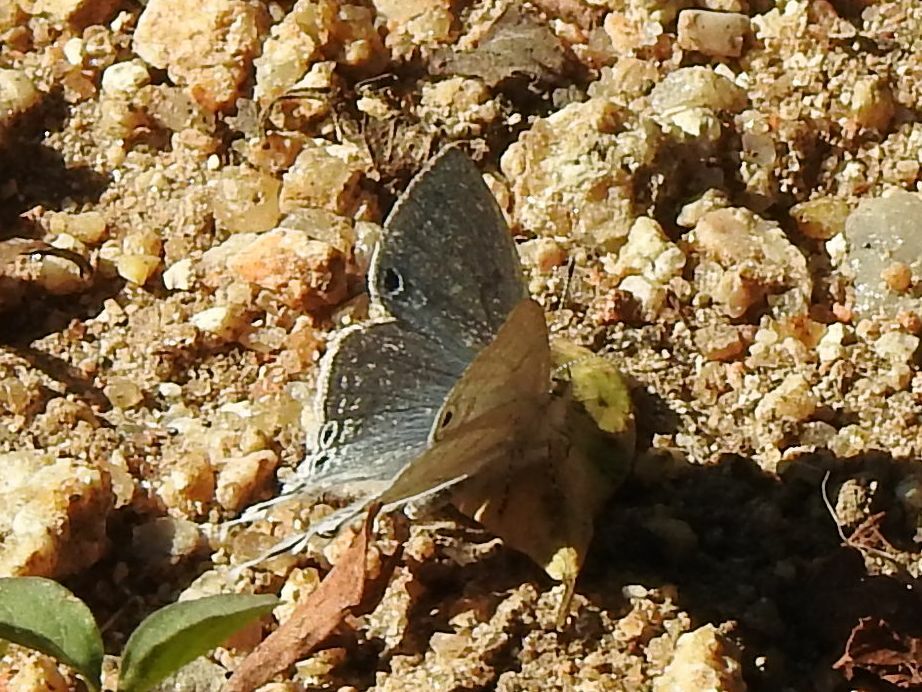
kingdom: Animalia
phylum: Arthropoda
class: Insecta
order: Lepidoptera
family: Lycaenidae
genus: Leptomyrina
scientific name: Leptomyrina hirundo
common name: Tailed black-eye
